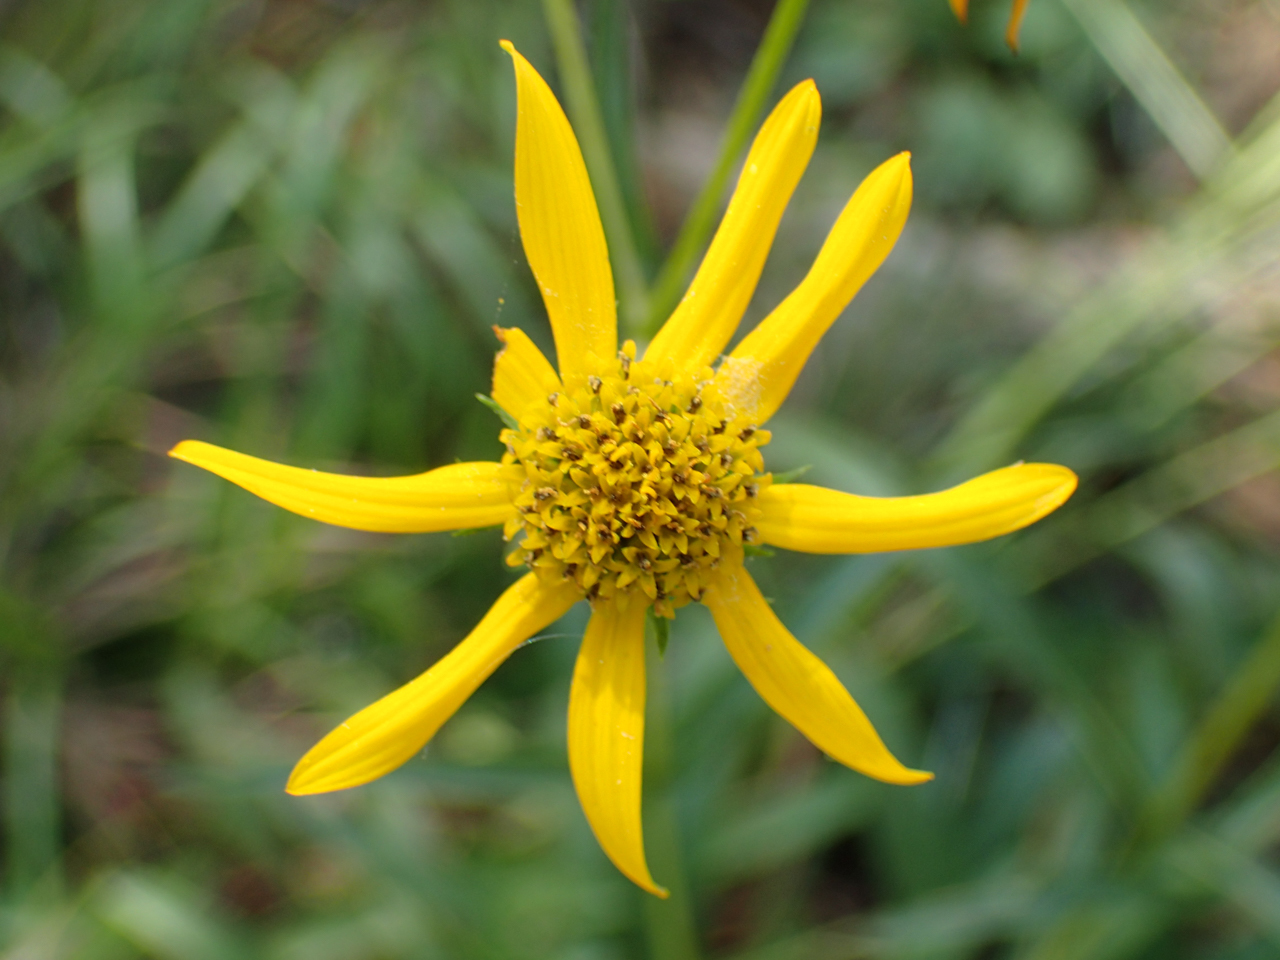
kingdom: Plantae
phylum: Tracheophyta
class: Magnoliopsida
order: Asterales
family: Asteraceae
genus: Helianthus
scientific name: Helianthus longifolius
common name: Longleaf sunflower
